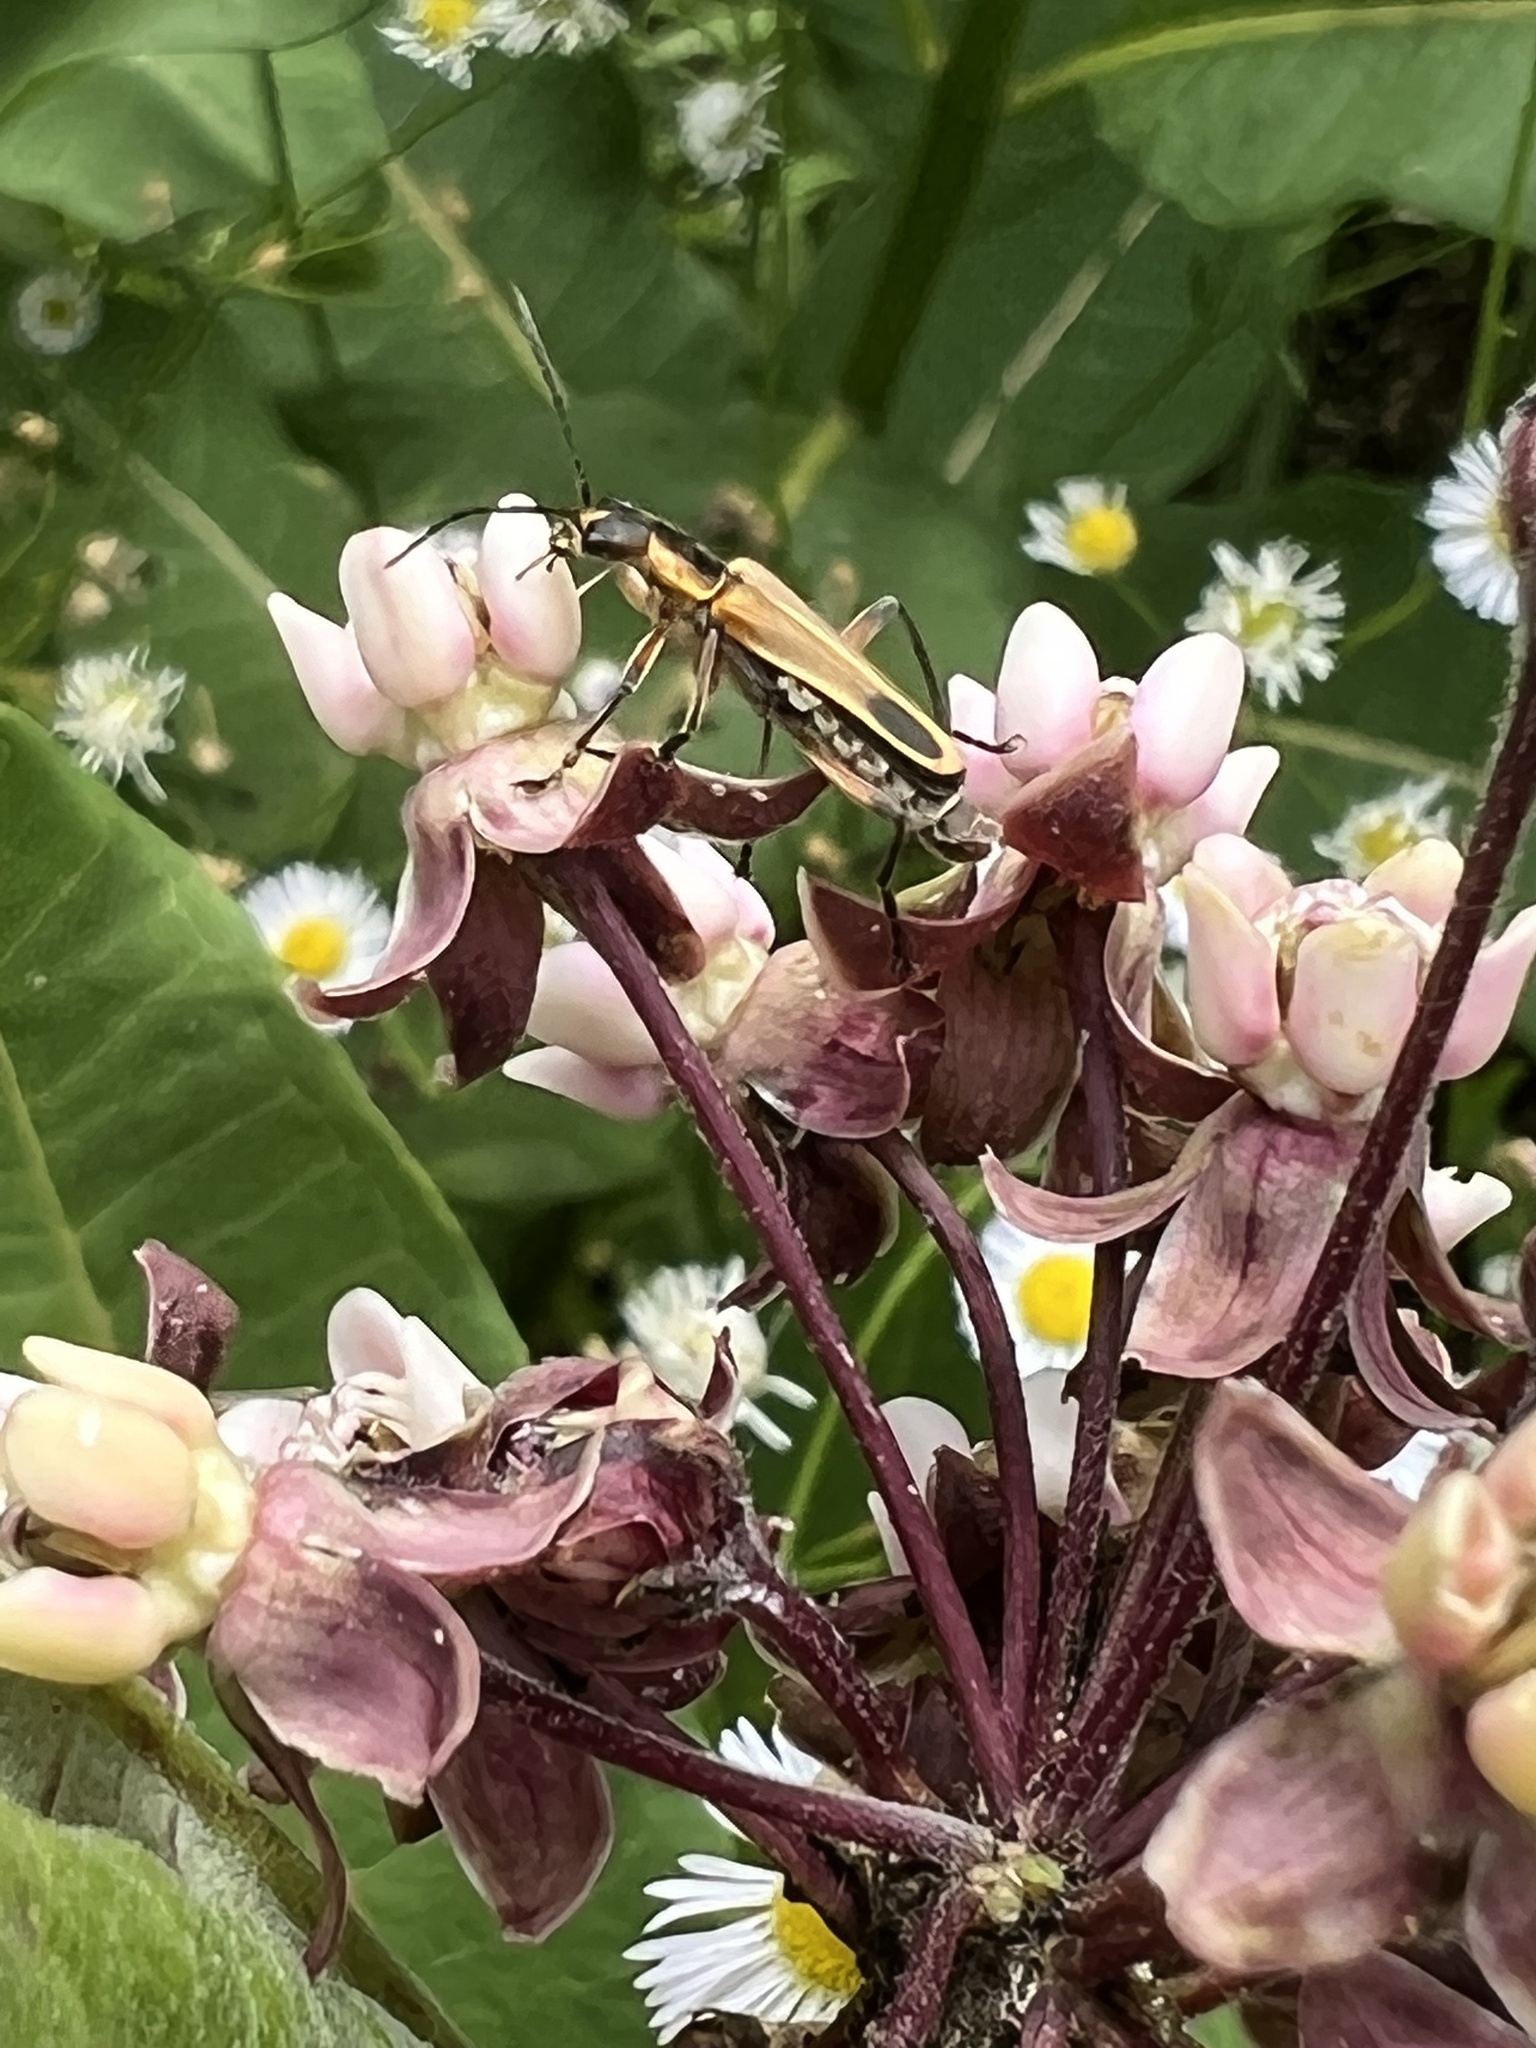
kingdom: Animalia
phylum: Arthropoda
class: Insecta
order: Coleoptera
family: Cantharidae
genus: Chauliognathus
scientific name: Chauliognathus marginatus
